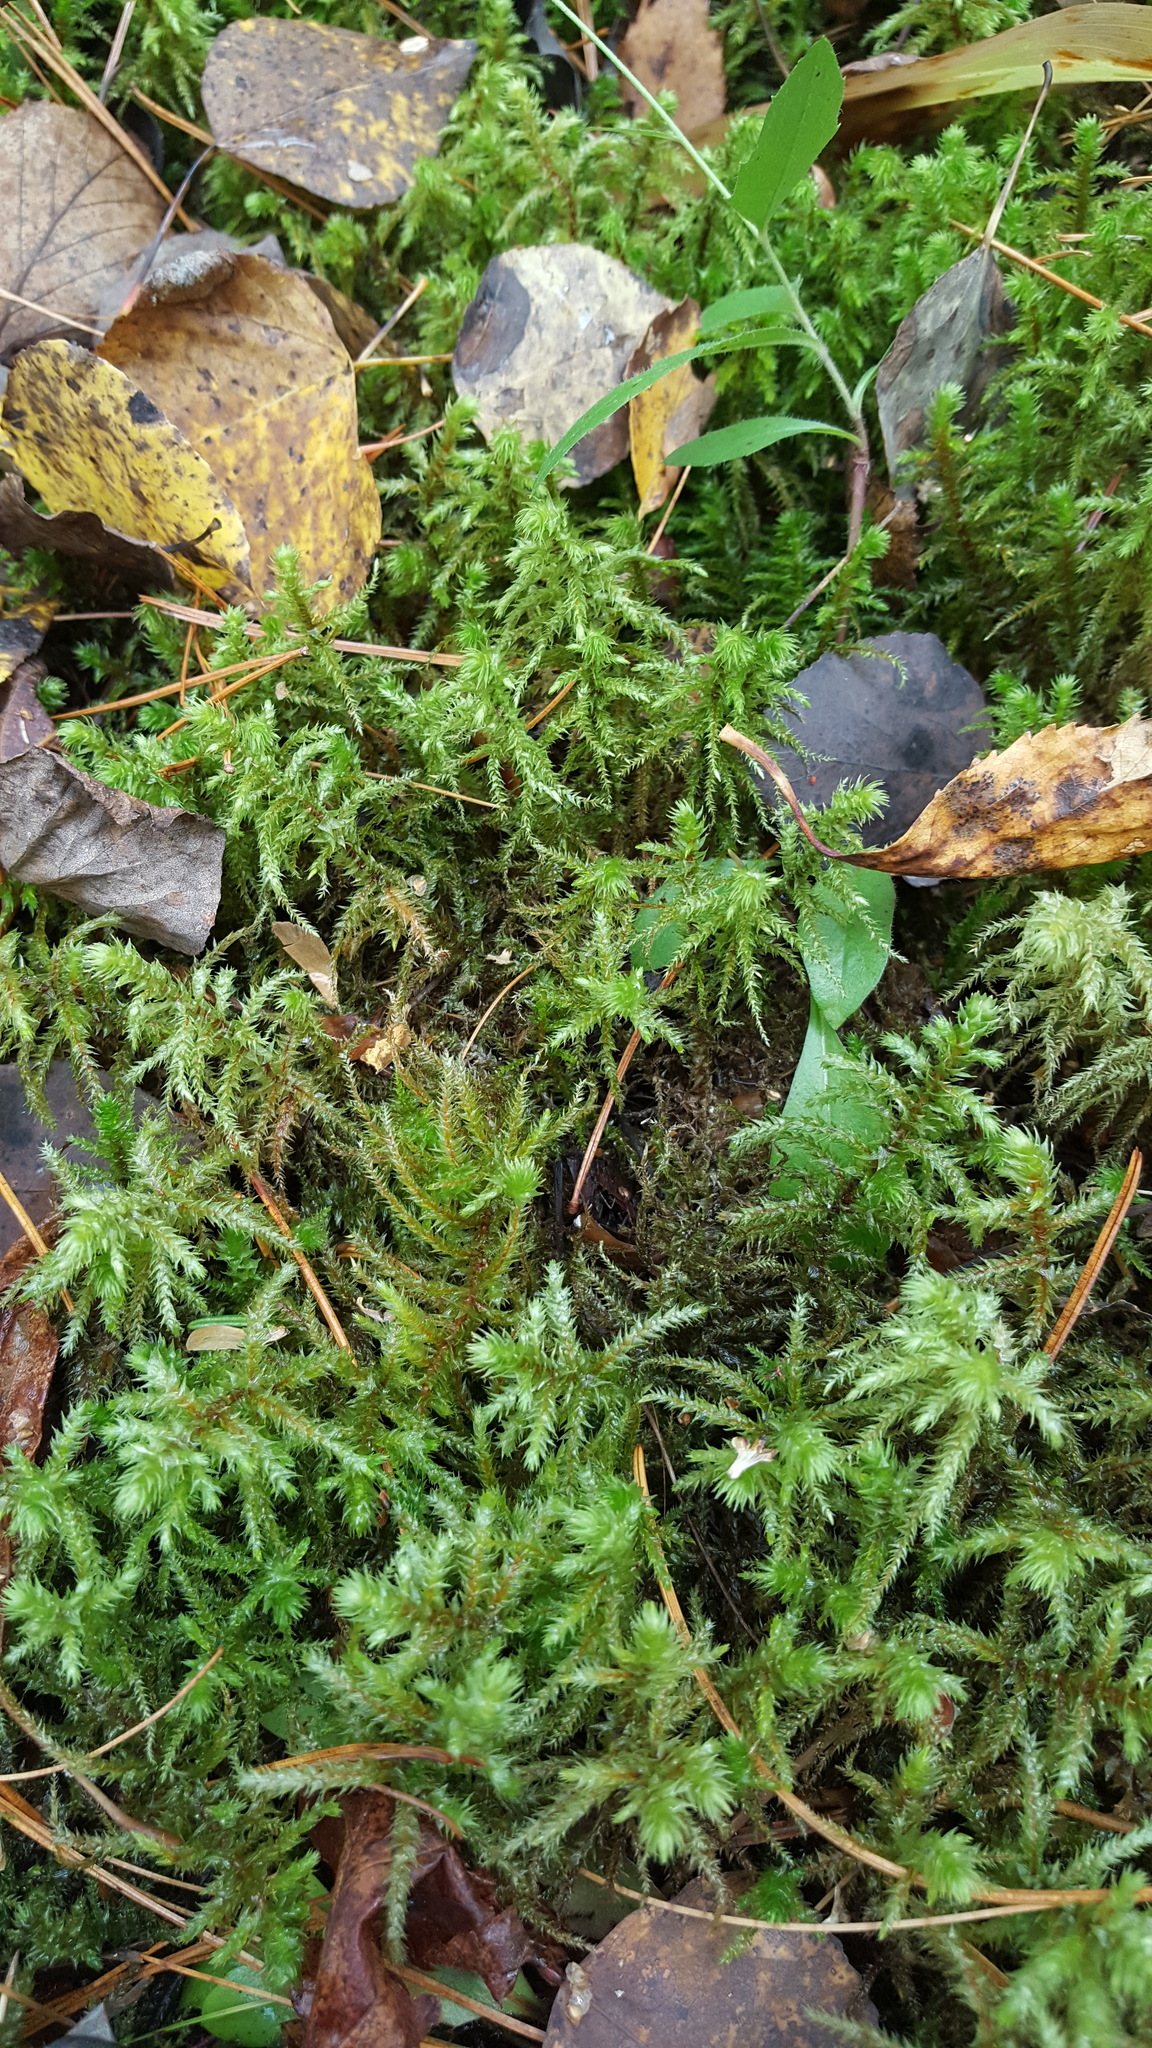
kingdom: Plantae
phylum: Bryophyta
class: Bryopsida
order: Hypnales
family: Hylocomiaceae
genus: Hylocomiadelphus
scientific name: Hylocomiadelphus triquetrus
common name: Rough goose neck moss
